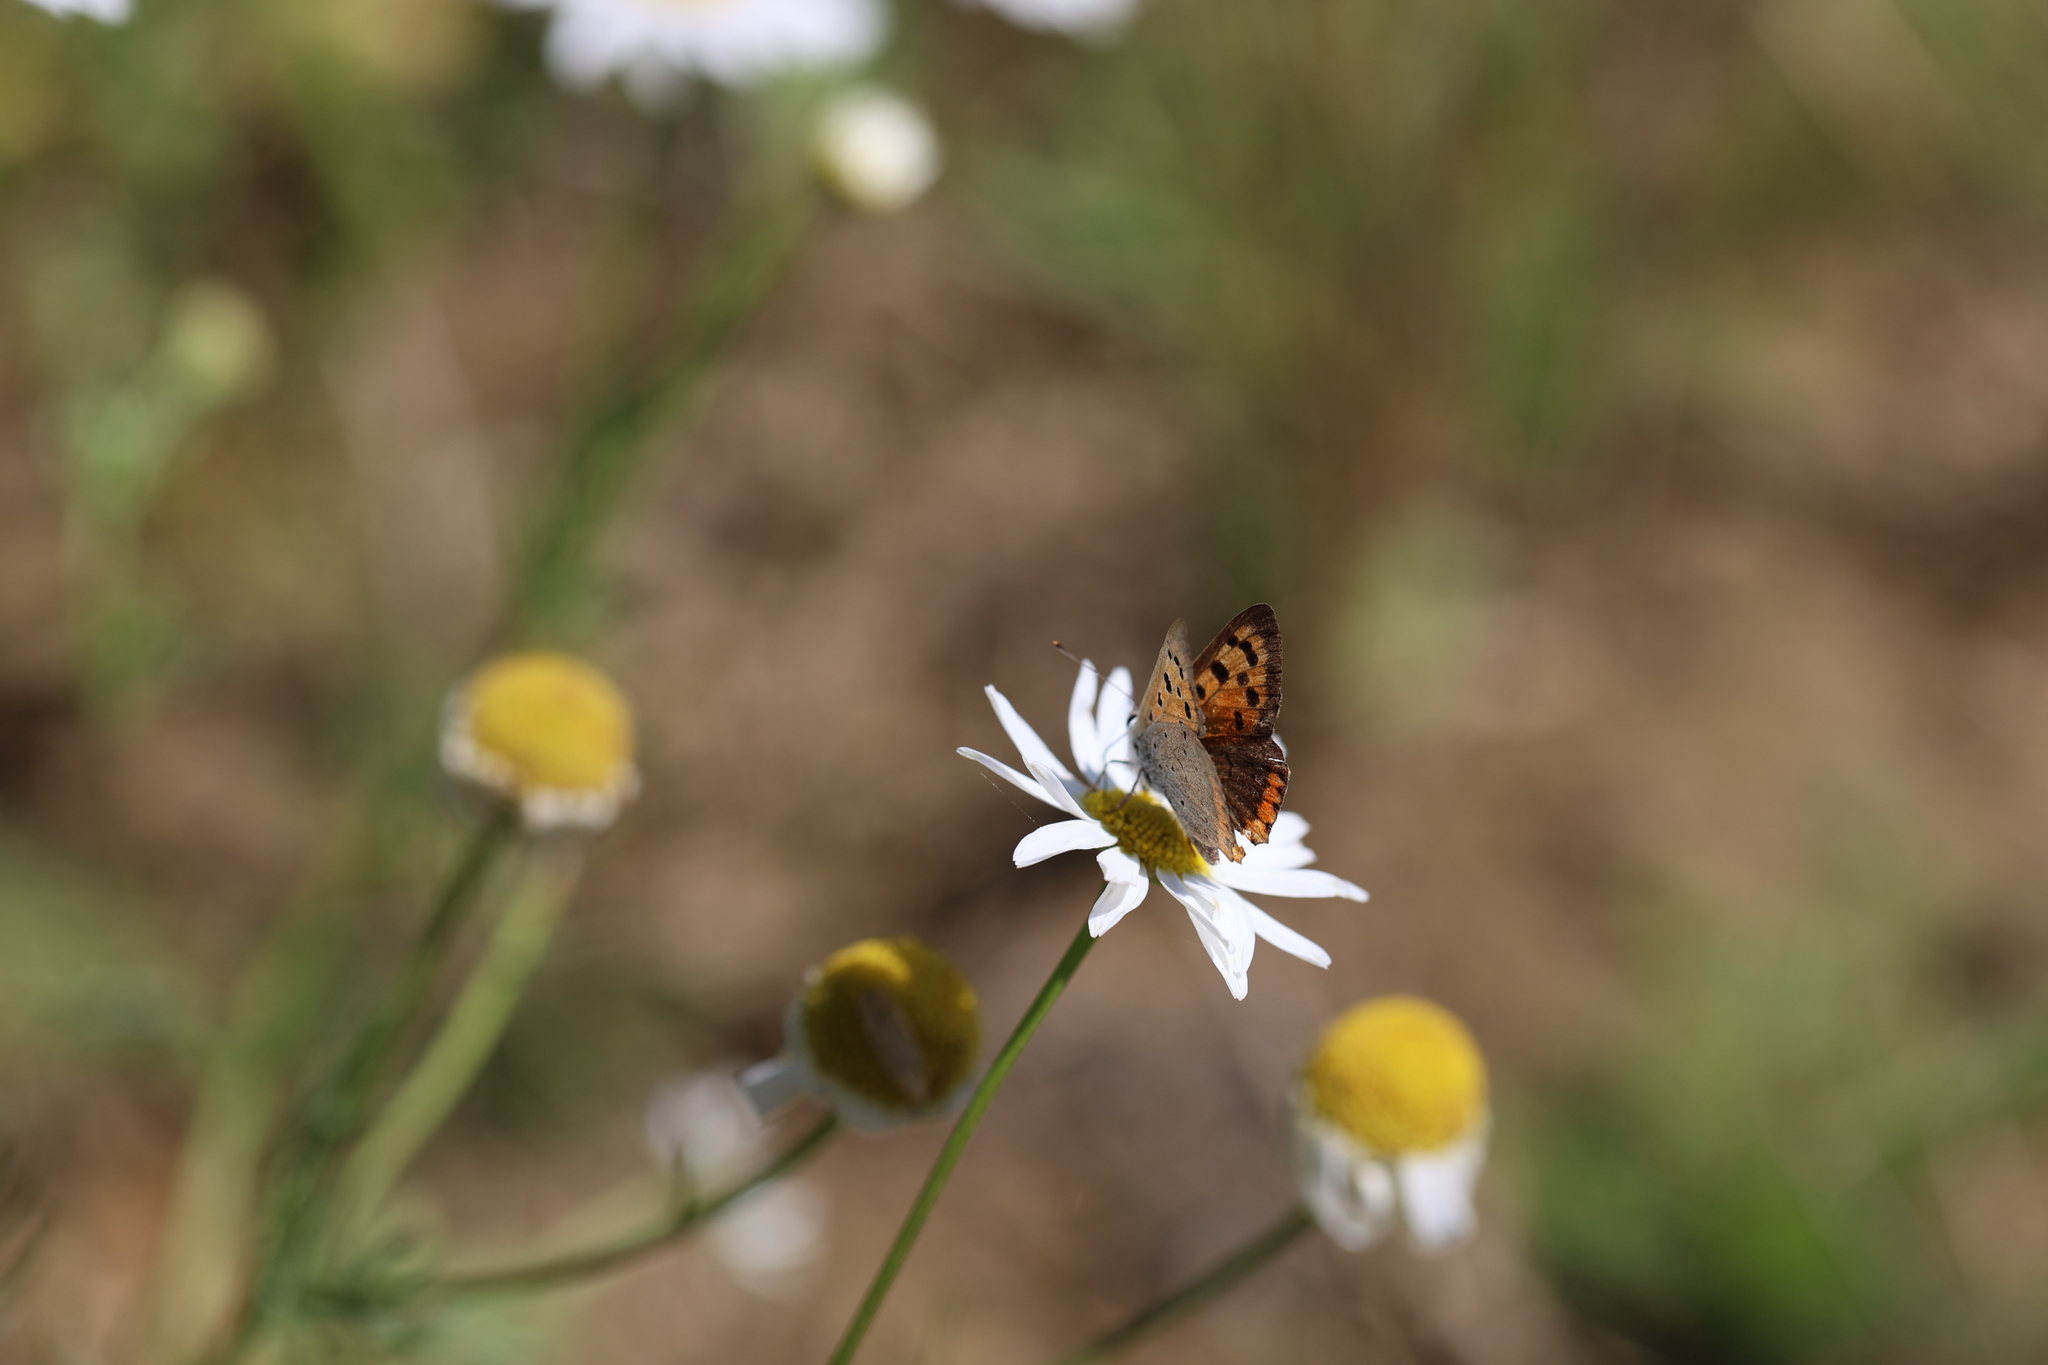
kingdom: Animalia
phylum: Arthropoda
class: Insecta
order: Lepidoptera
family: Lycaenidae
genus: Lycaena
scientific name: Lycaena phlaeas
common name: Small copper
